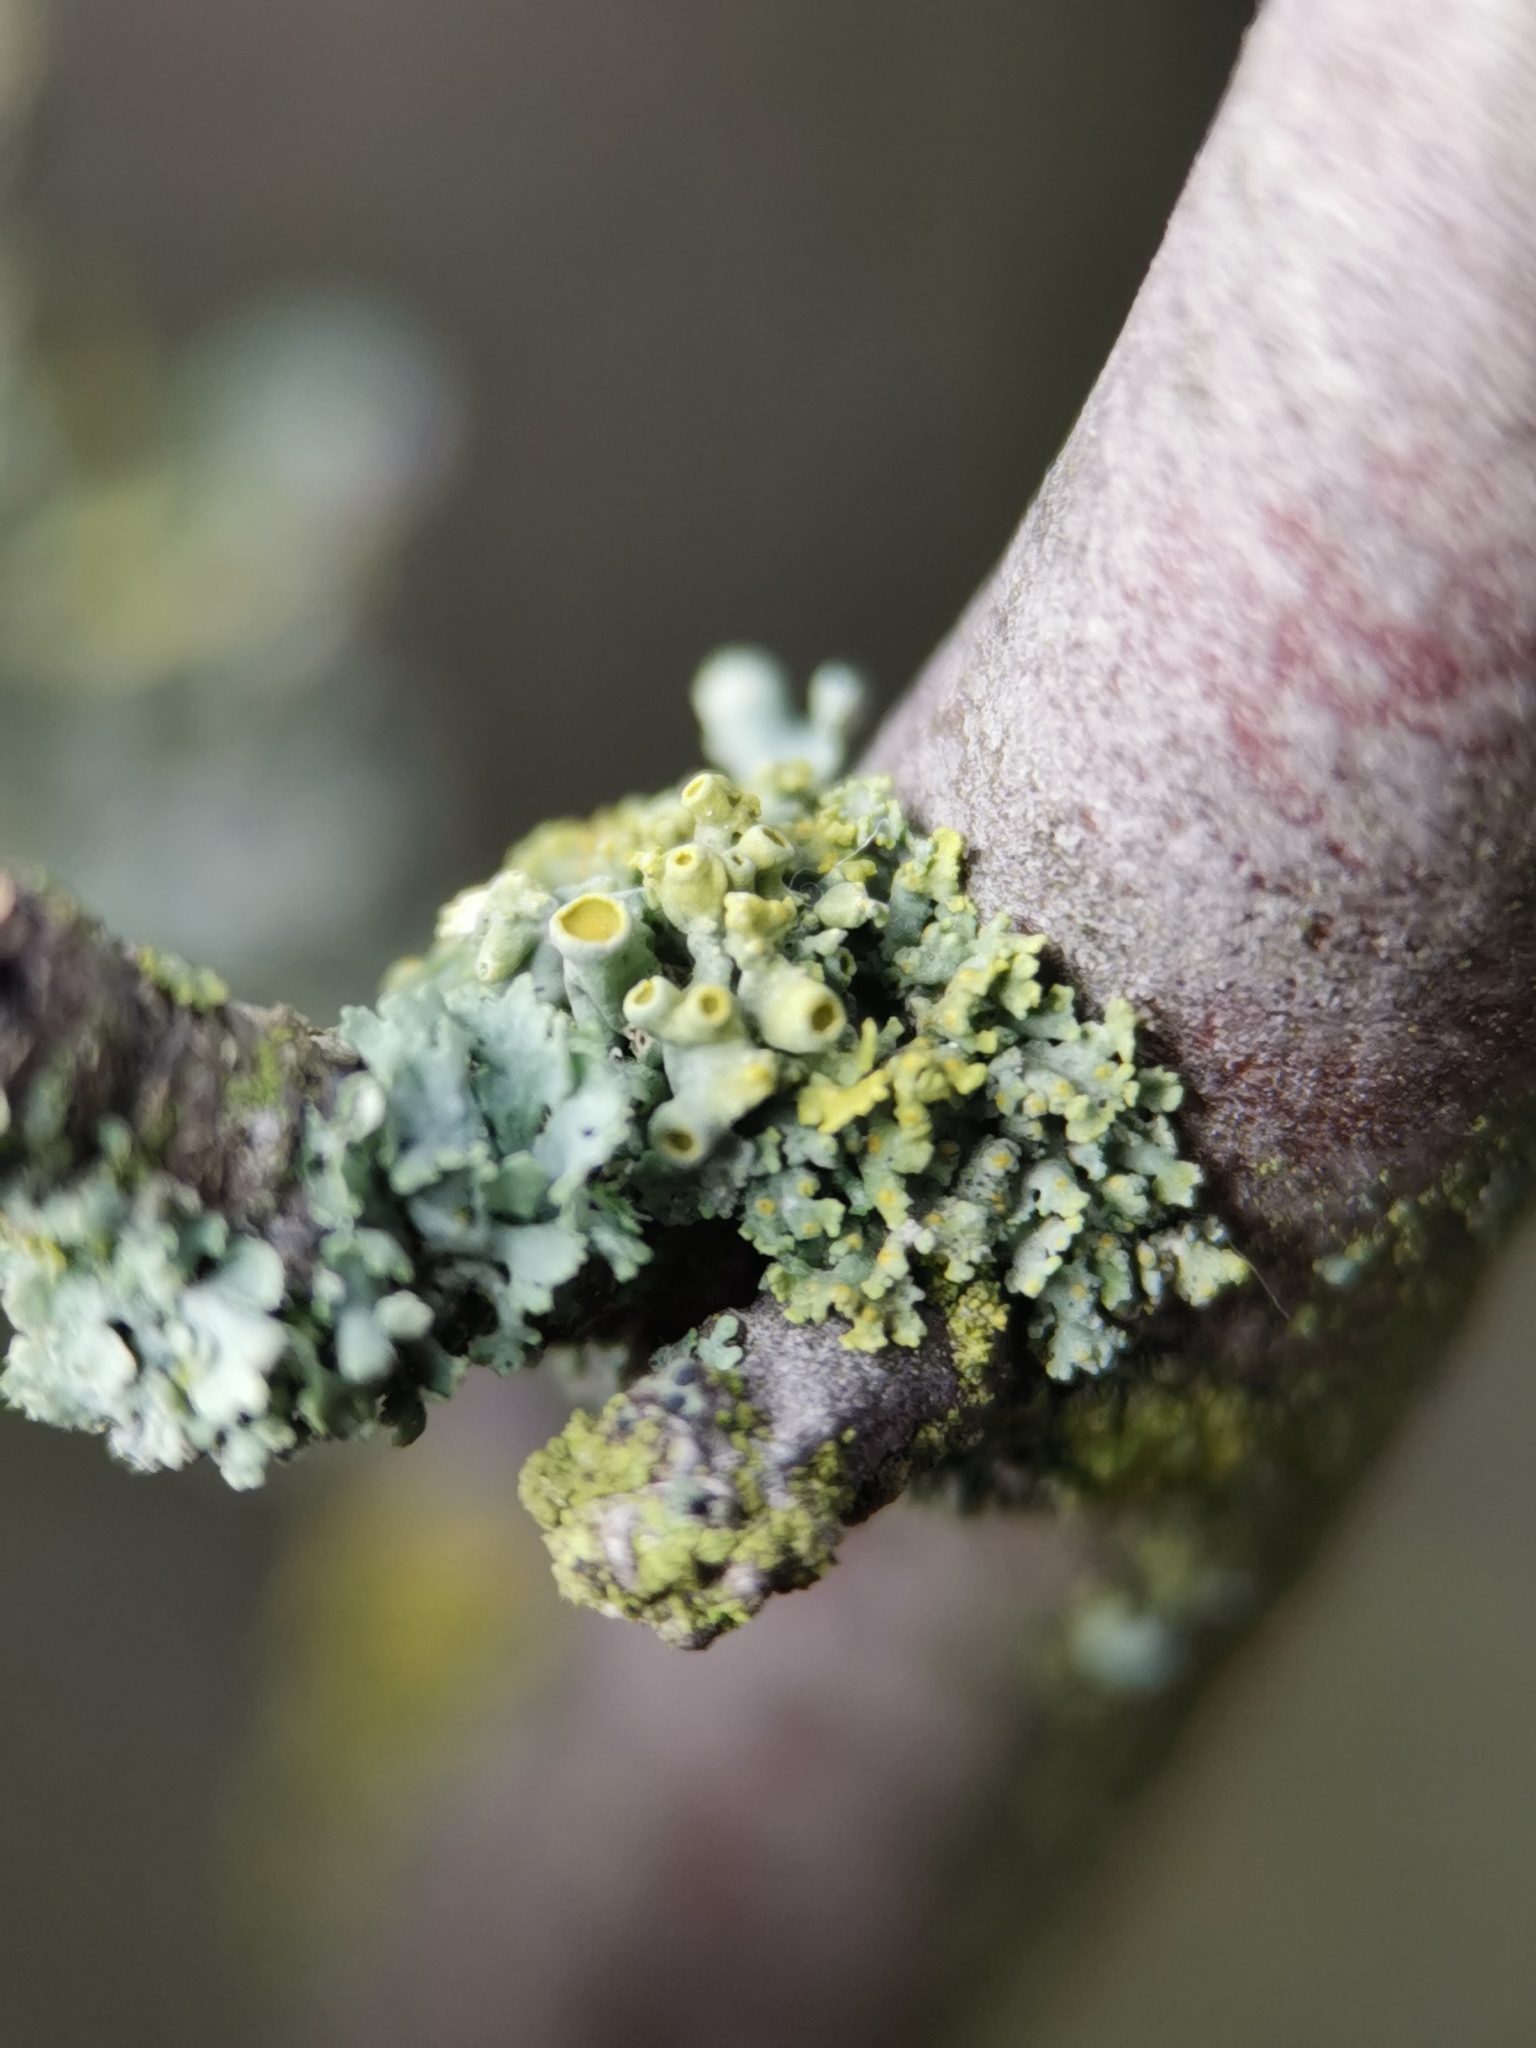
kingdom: Fungi
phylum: Ascomycota
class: Lecanoromycetes
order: Teloschistales
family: Teloschistaceae
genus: Polycauliona
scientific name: Polycauliona polycarpa
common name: Pin-cushion sunburst lichen
